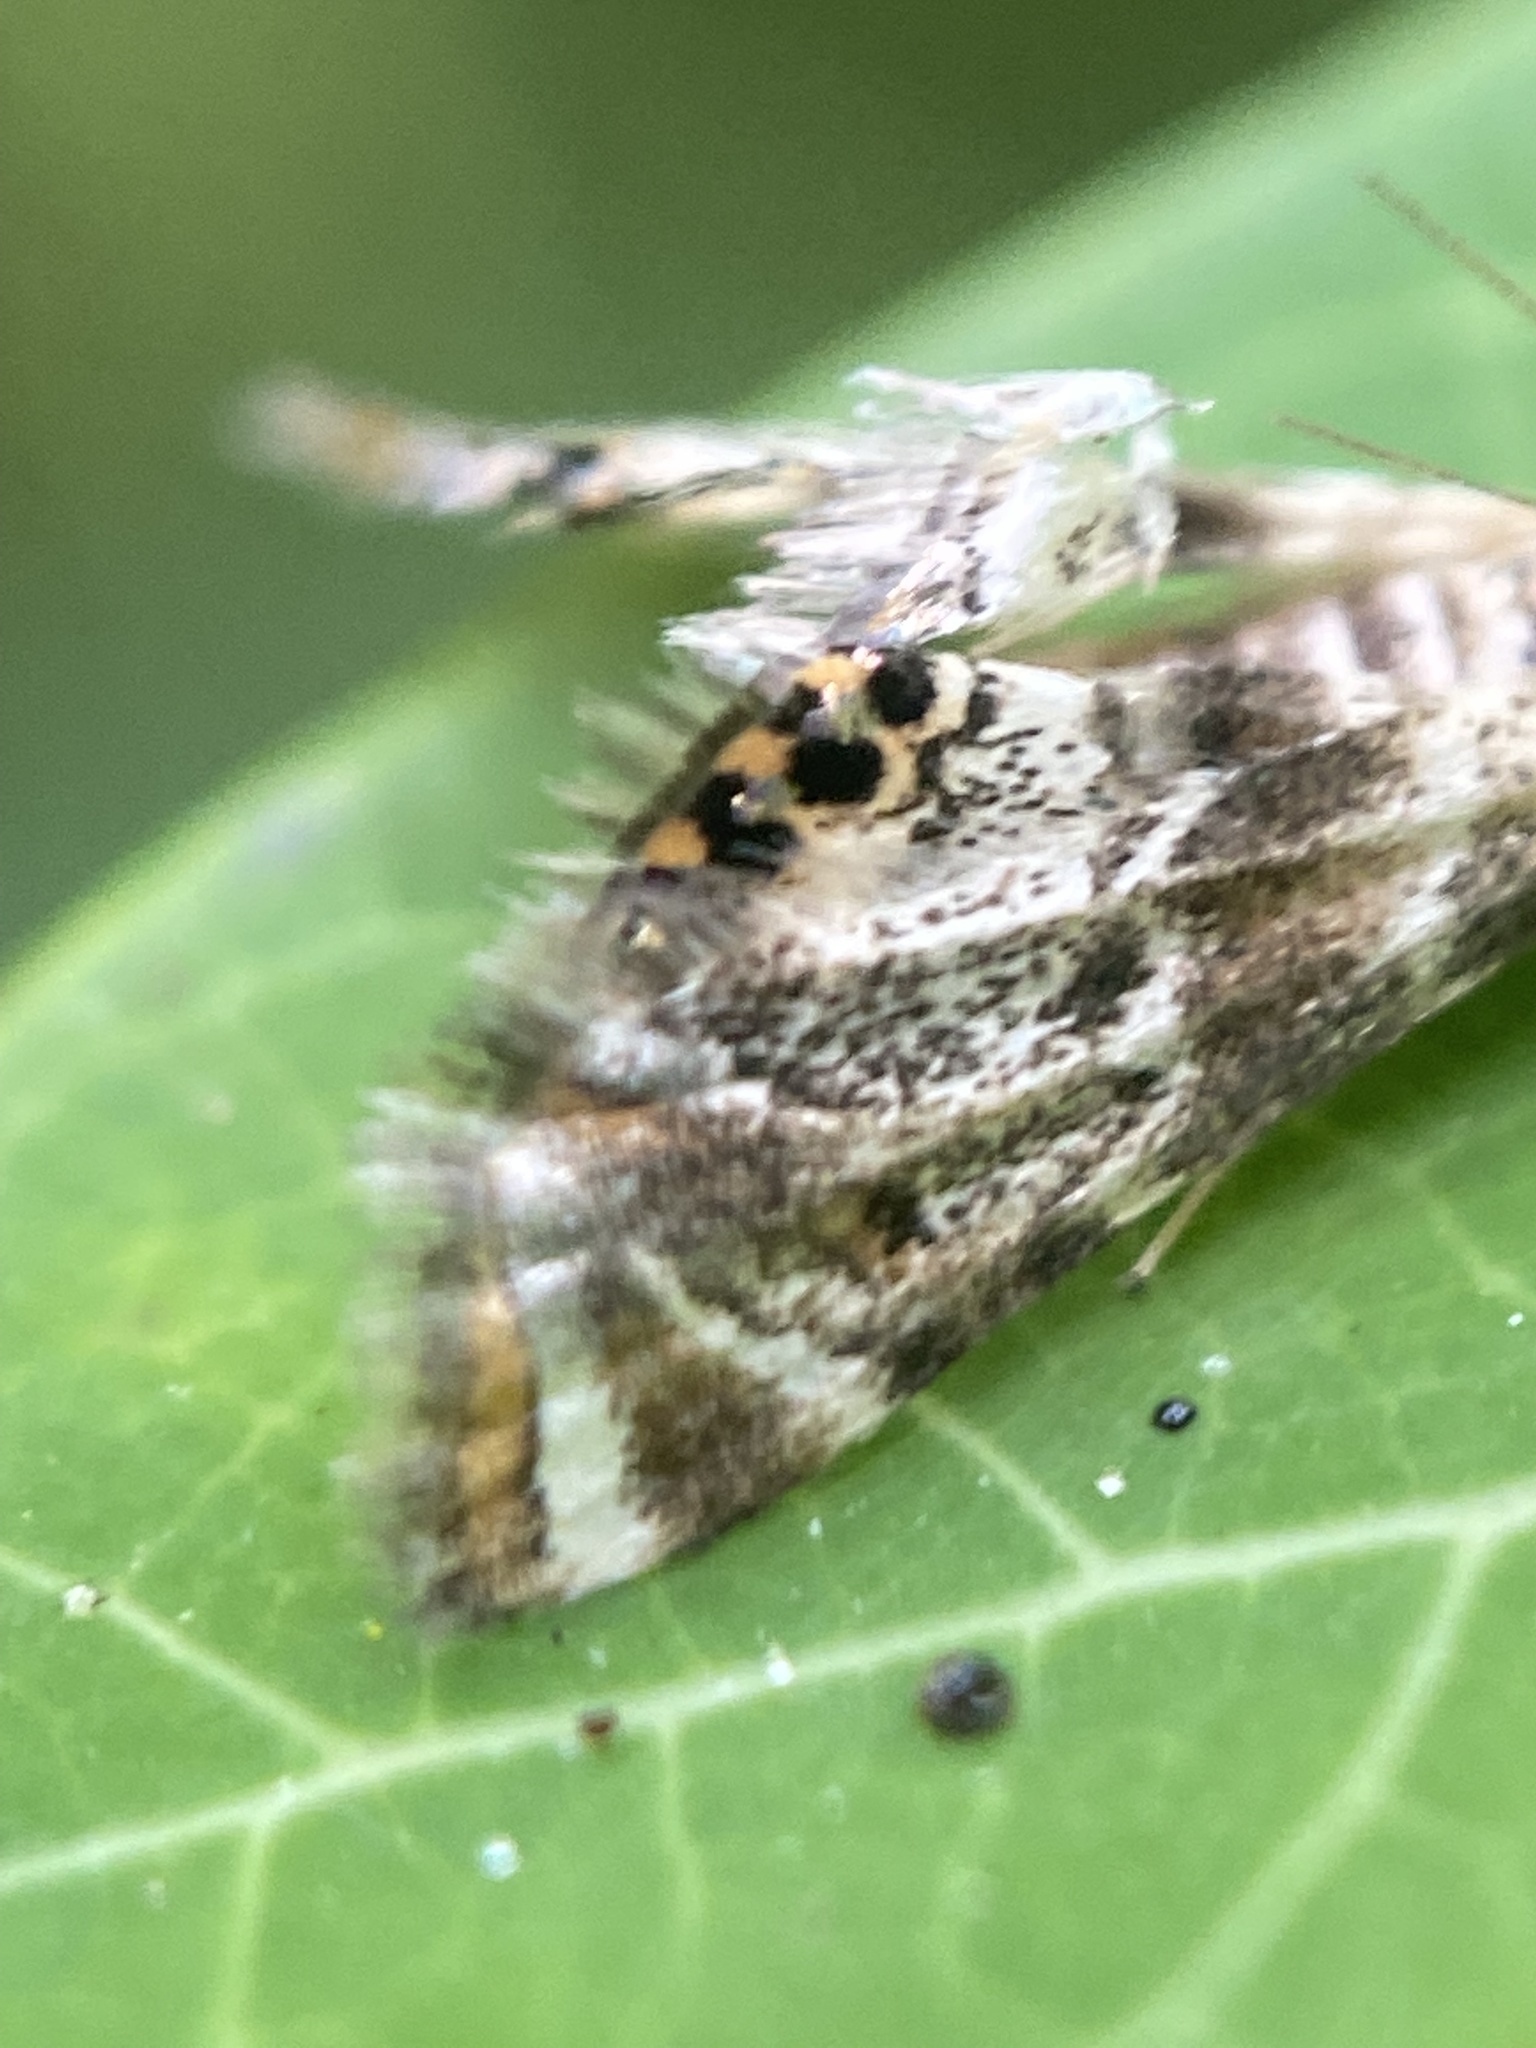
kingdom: Animalia
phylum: Arthropoda
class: Insecta
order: Lepidoptera
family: Crambidae
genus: Petrophila
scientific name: Petrophila fulicalis
